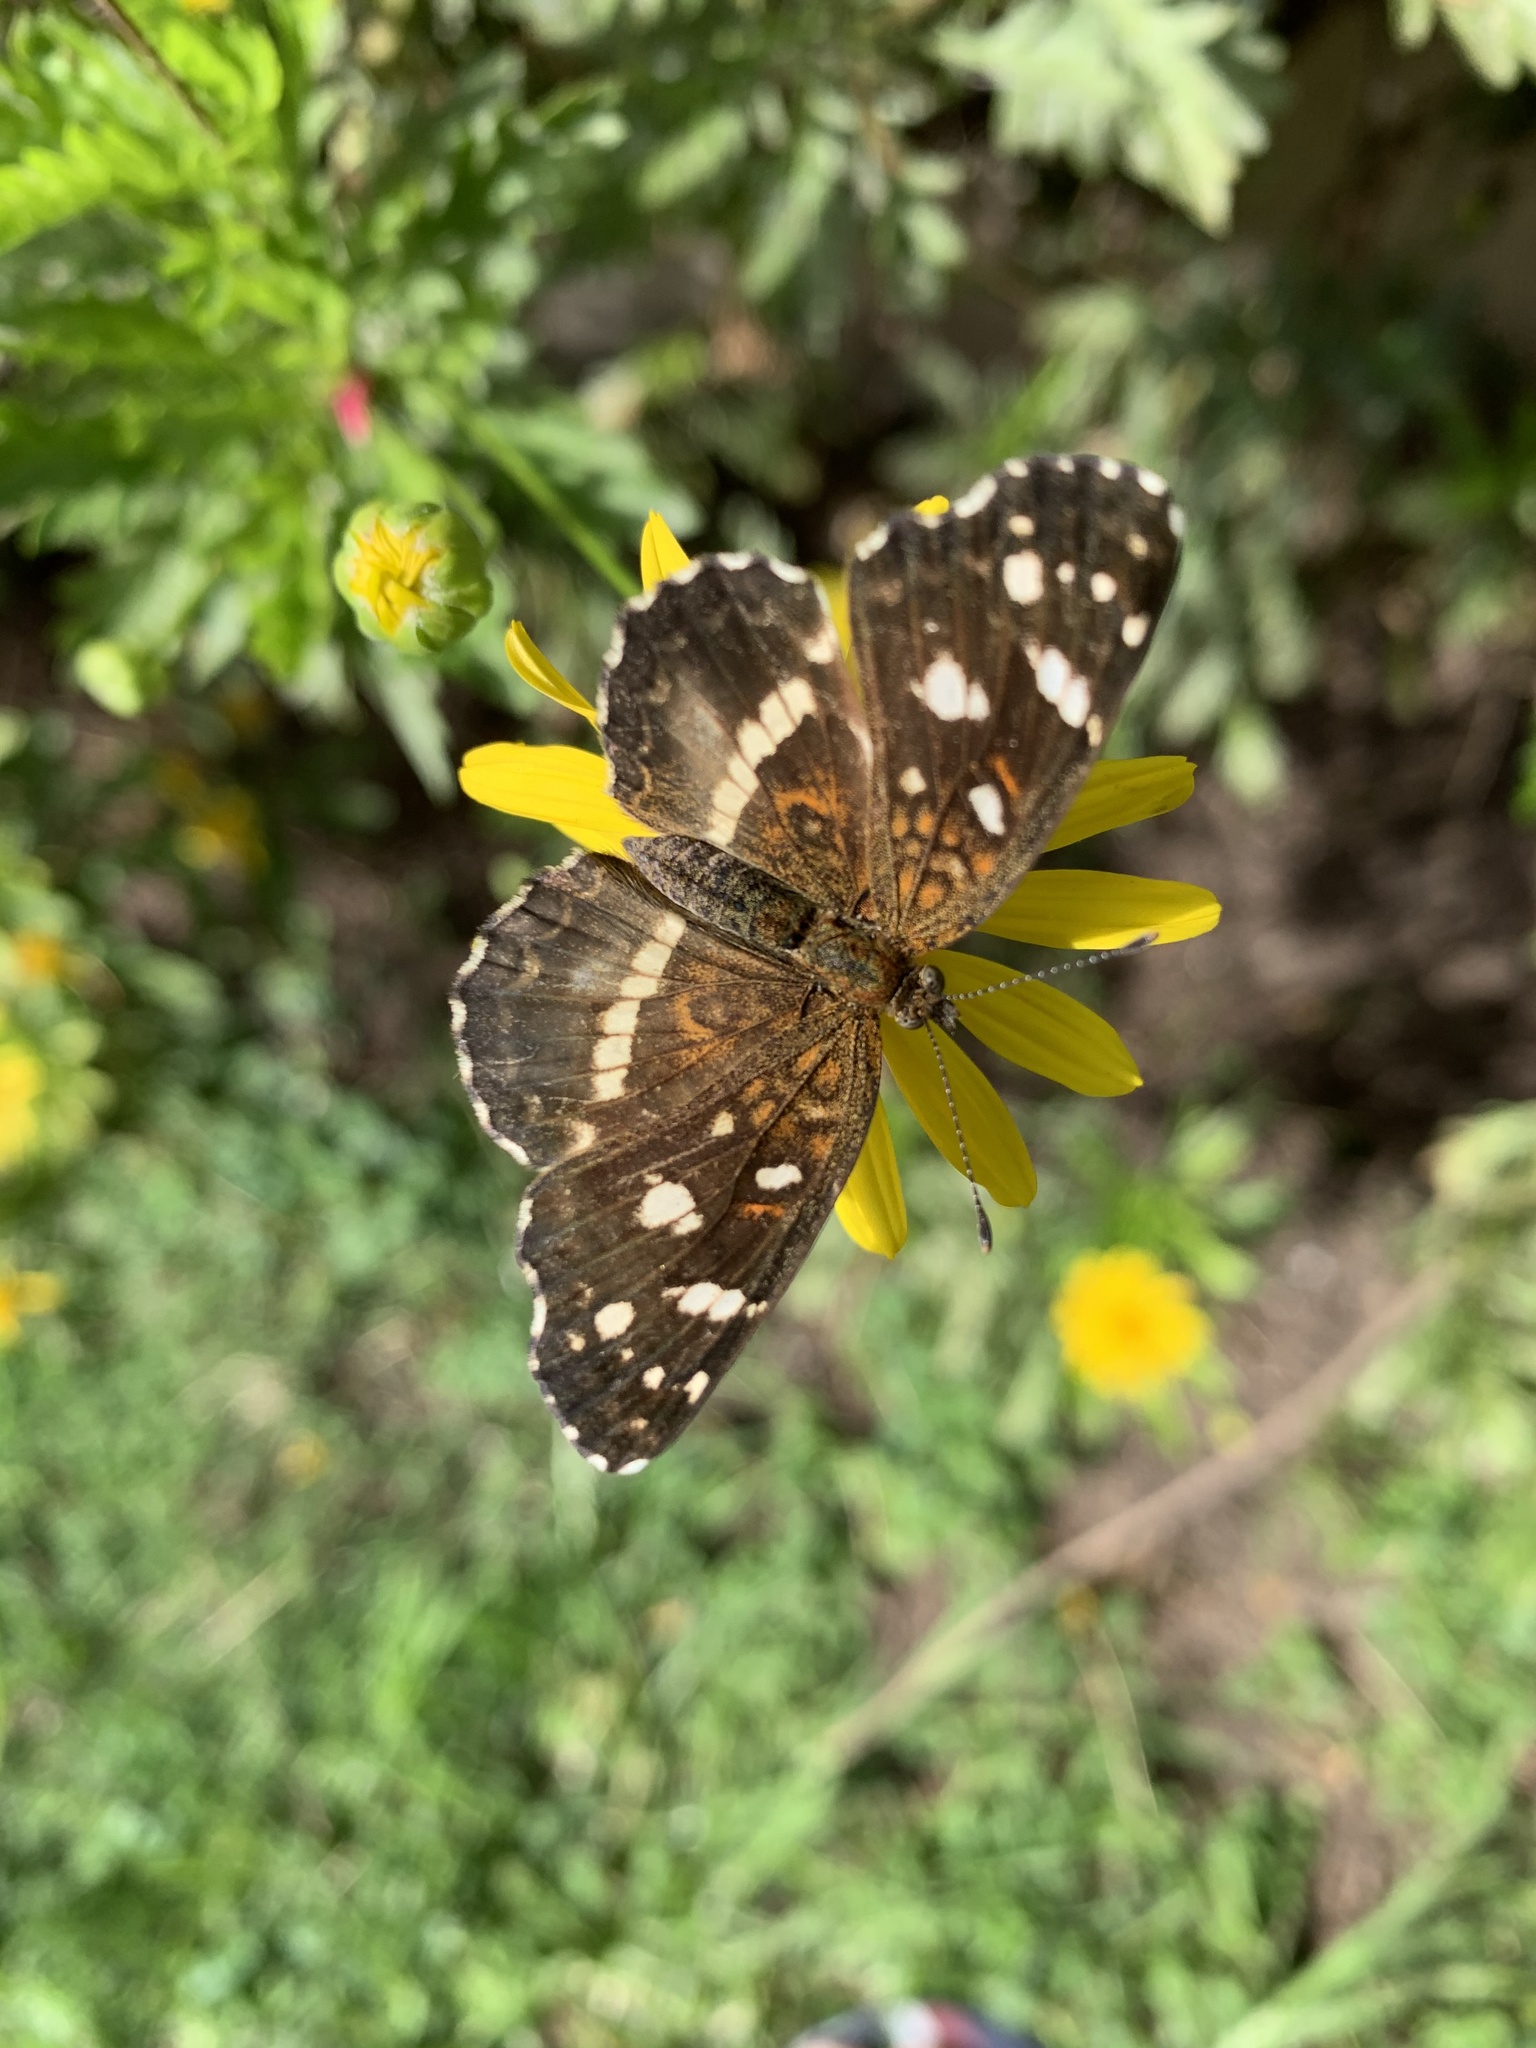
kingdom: Animalia
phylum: Arthropoda
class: Insecta
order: Lepidoptera
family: Nymphalidae
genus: Ortilia
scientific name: Ortilia ithra
